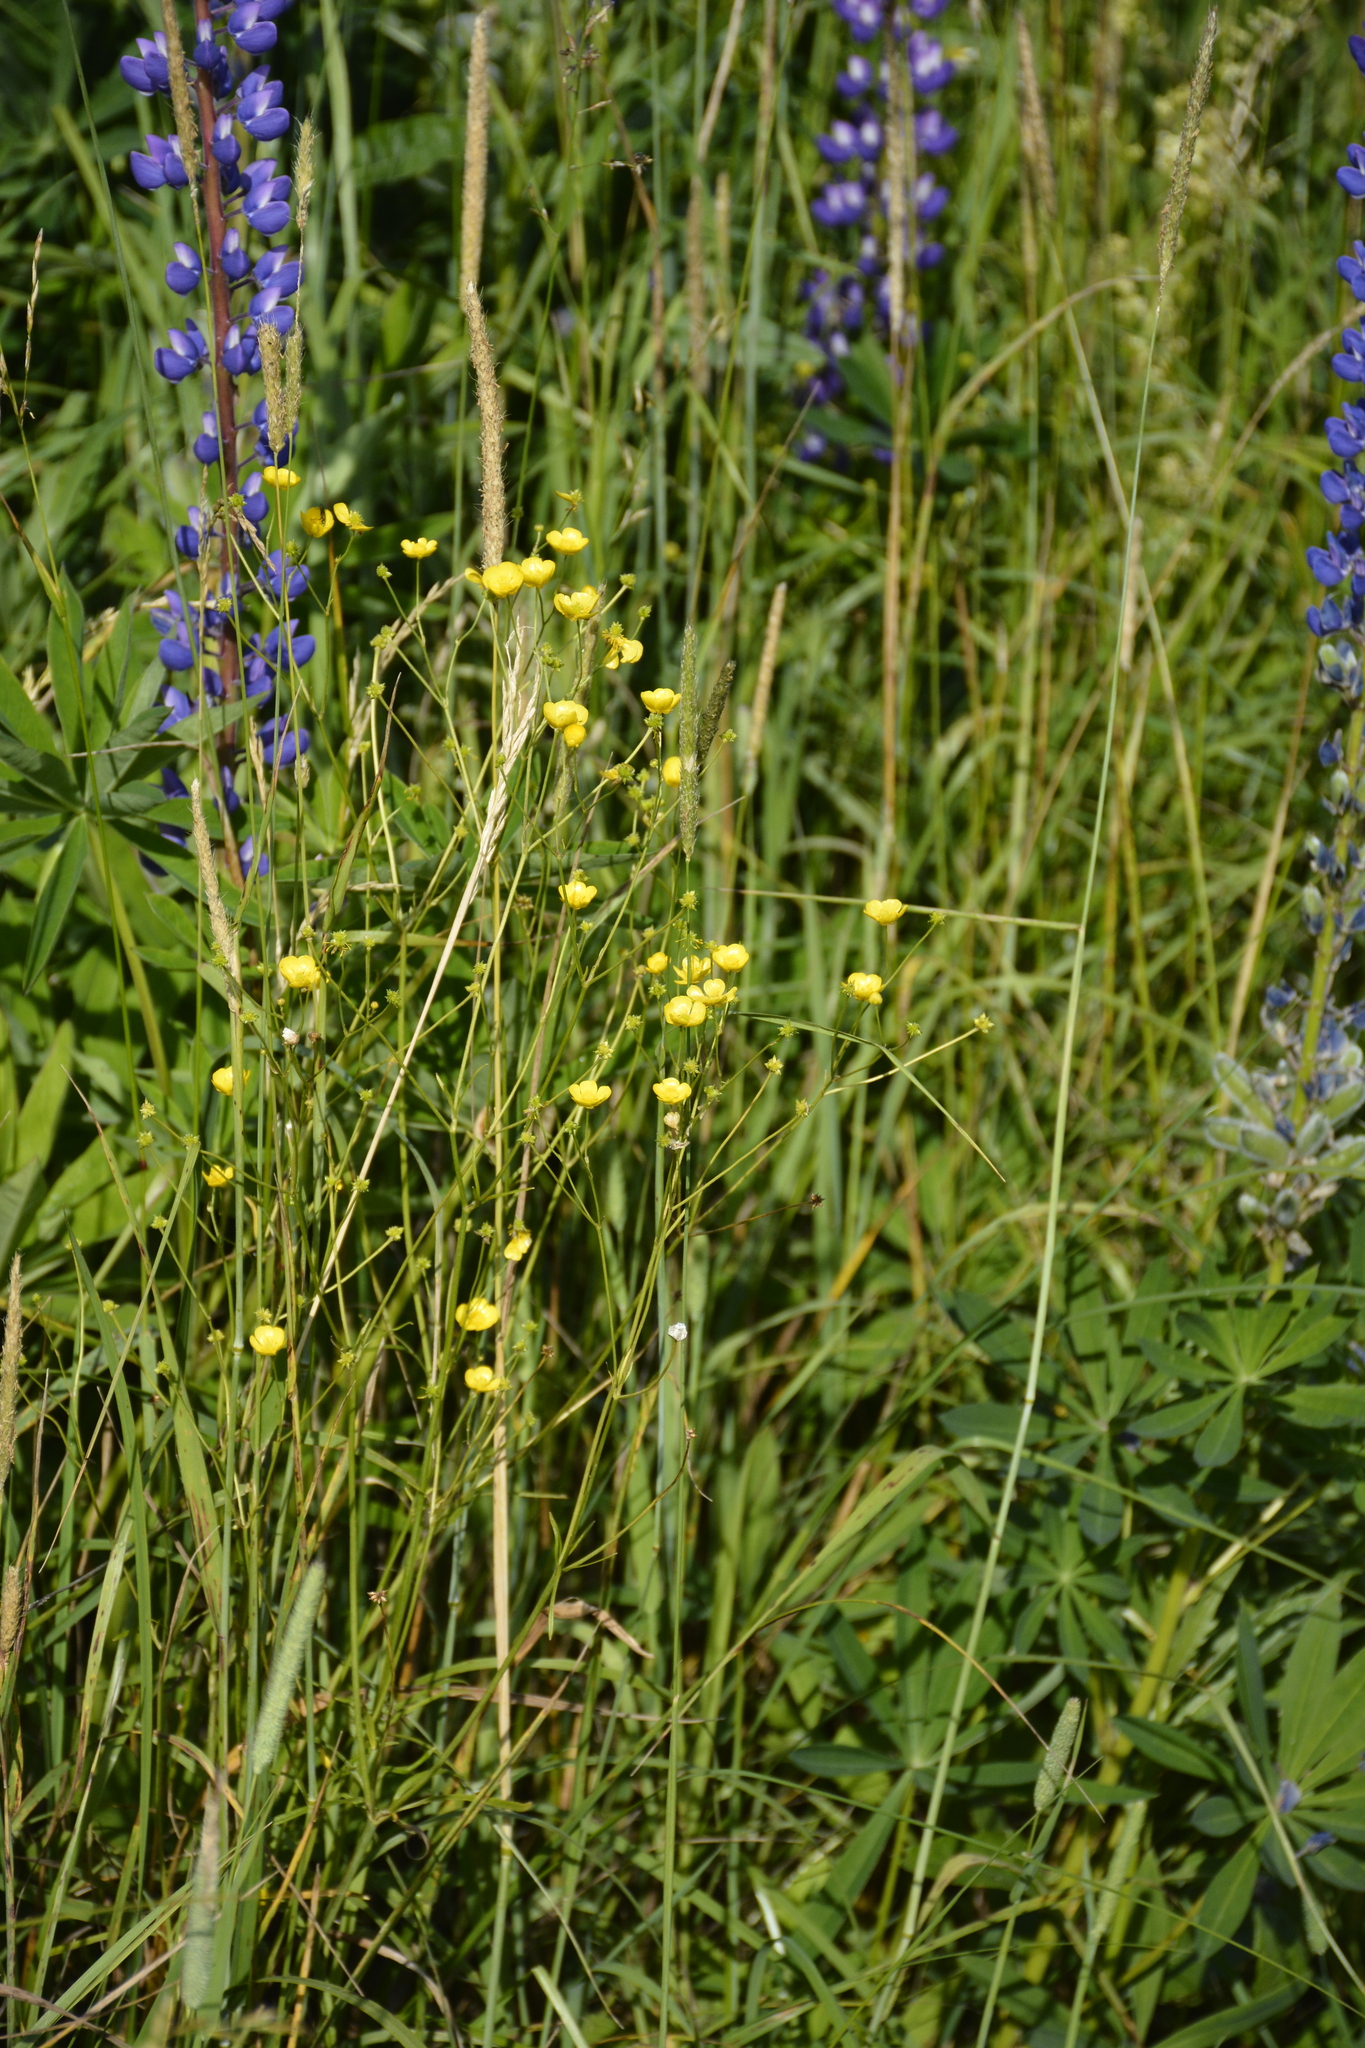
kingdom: Plantae
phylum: Tracheophyta
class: Magnoliopsida
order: Ranunculales
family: Ranunculaceae
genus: Ranunculus
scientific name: Ranunculus acris
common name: Meadow buttercup
